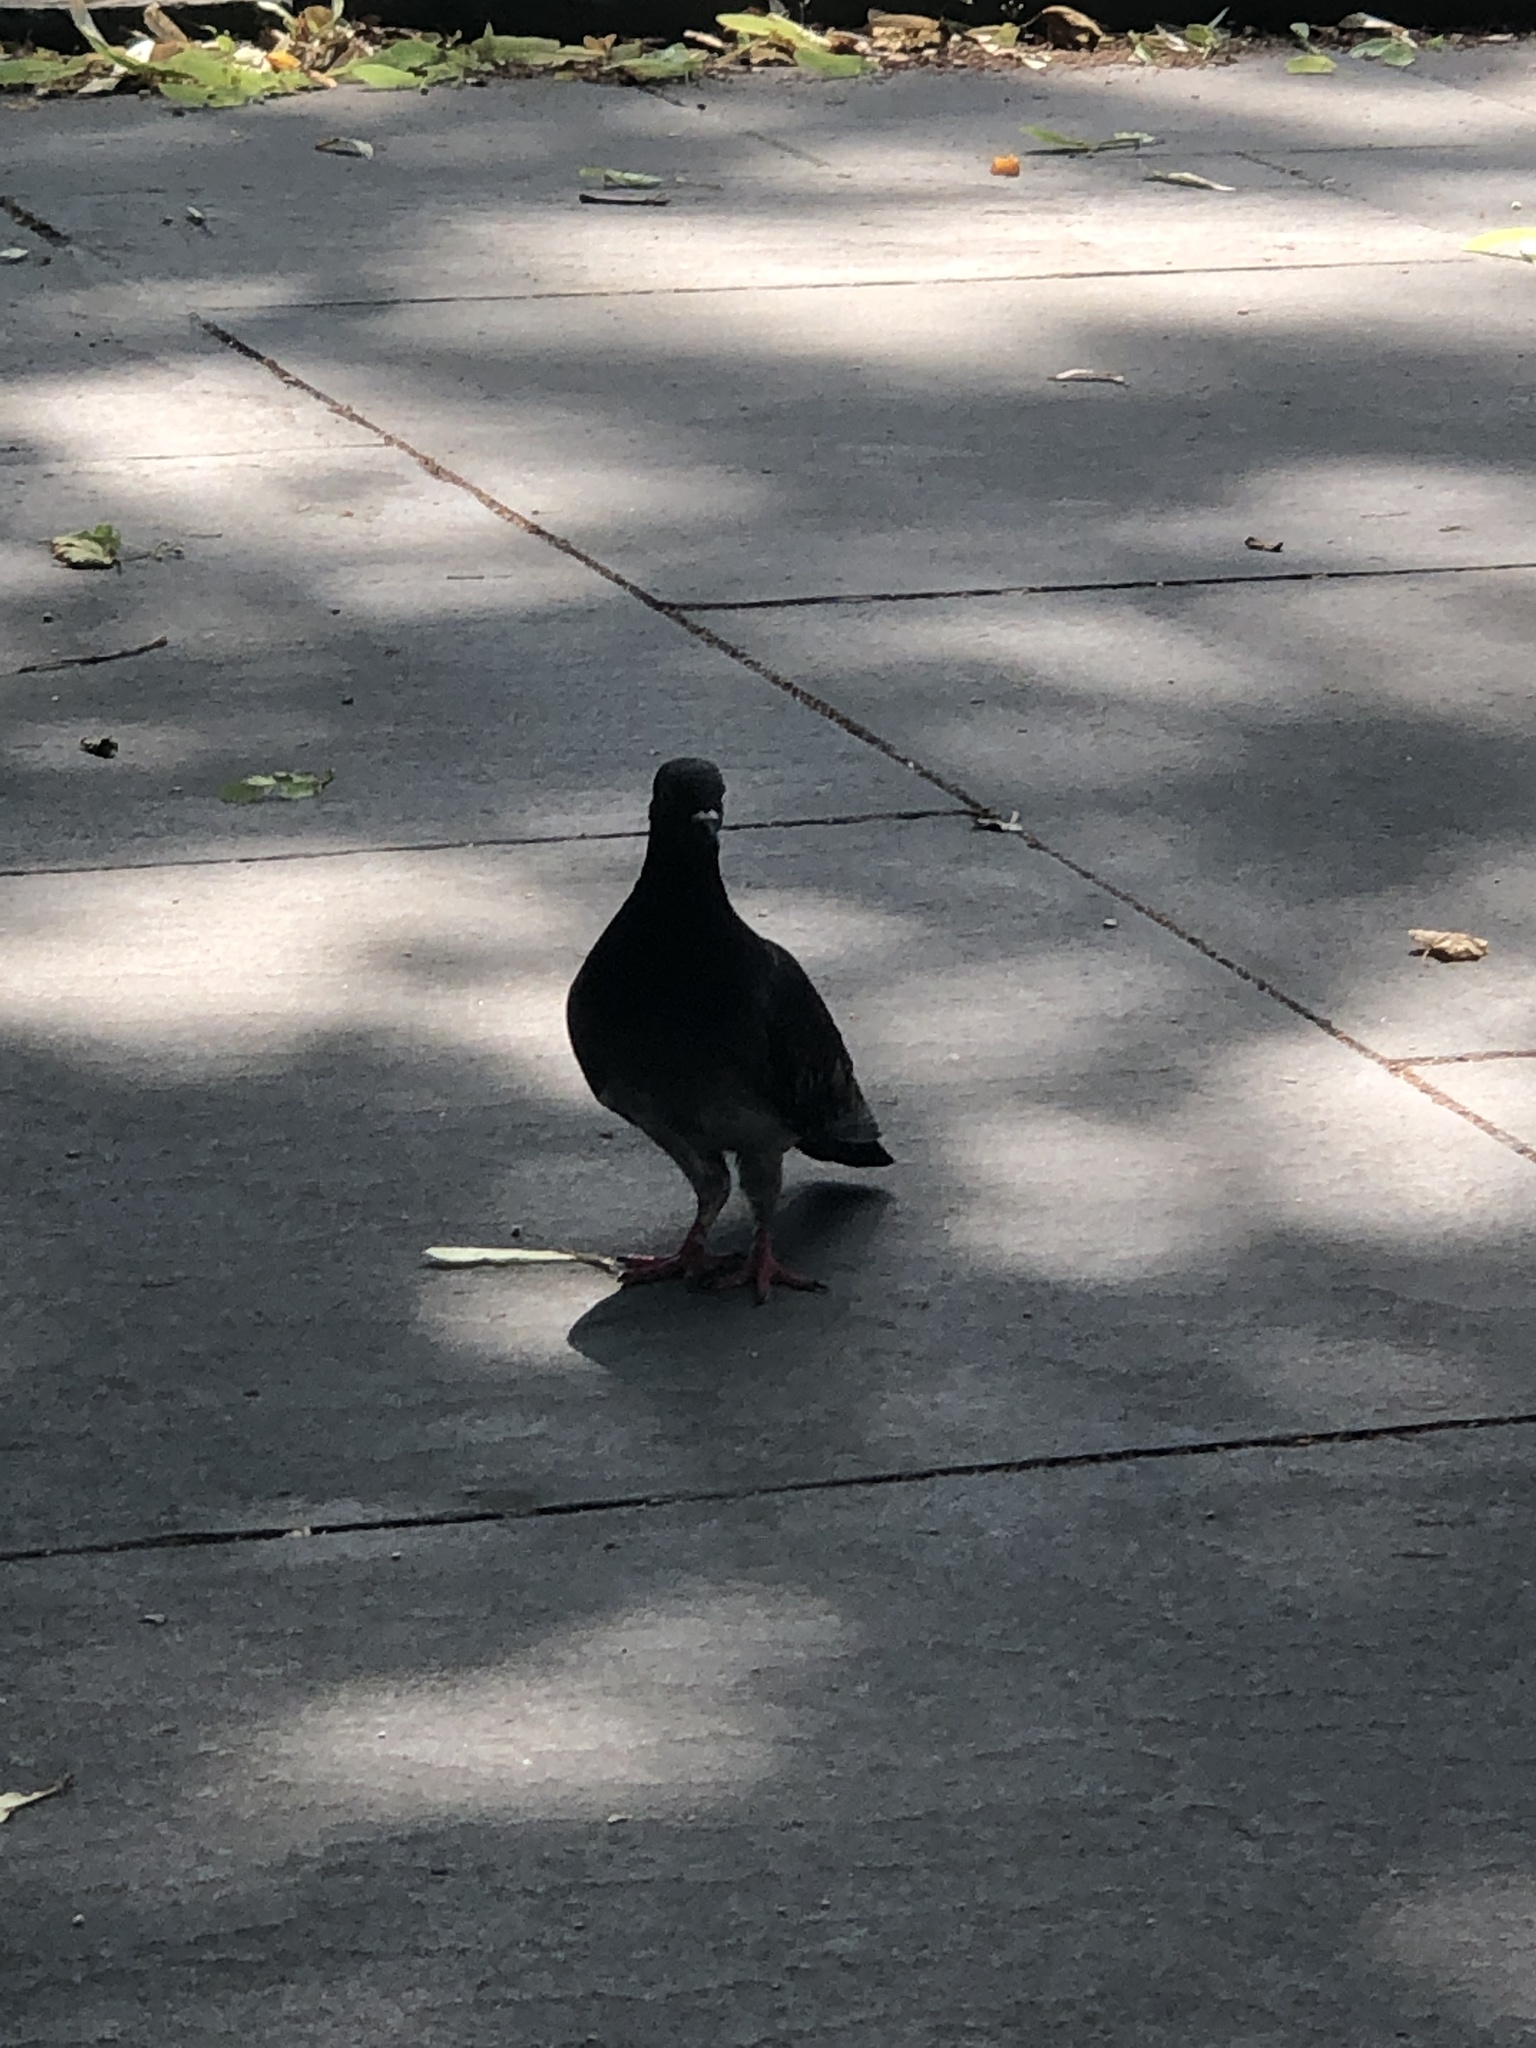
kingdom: Animalia
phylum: Chordata
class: Aves
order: Columbiformes
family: Columbidae
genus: Columba
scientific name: Columba livia
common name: Rock pigeon
